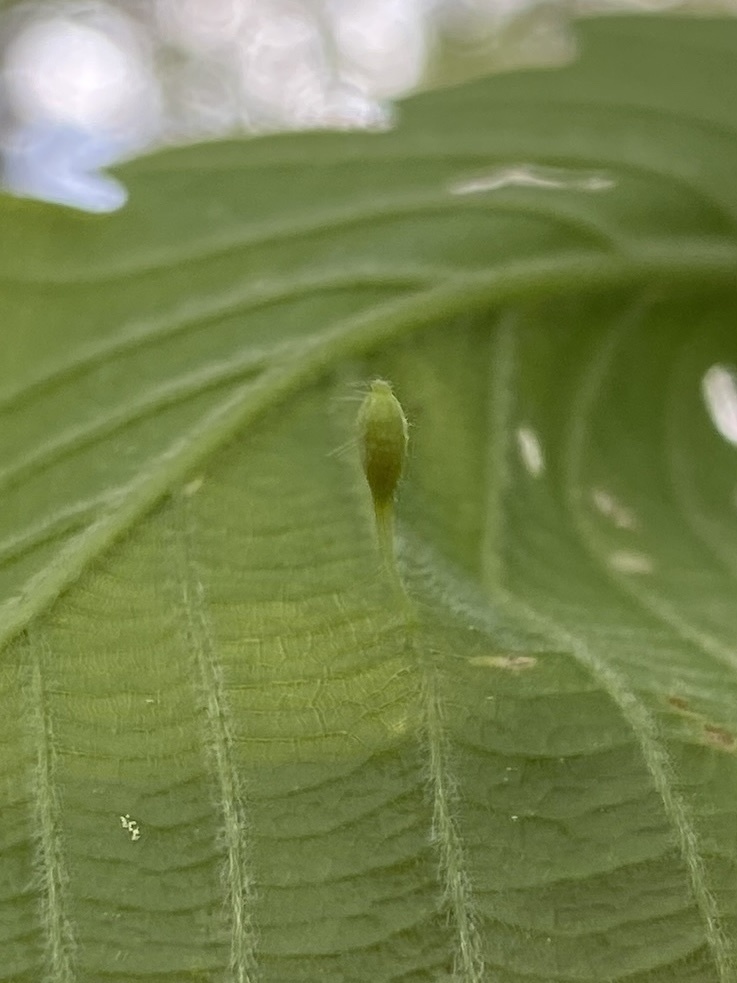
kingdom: Animalia
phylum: Arthropoda
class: Insecta
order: Hymenoptera
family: Cynipidae
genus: Andricus
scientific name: Andricus
